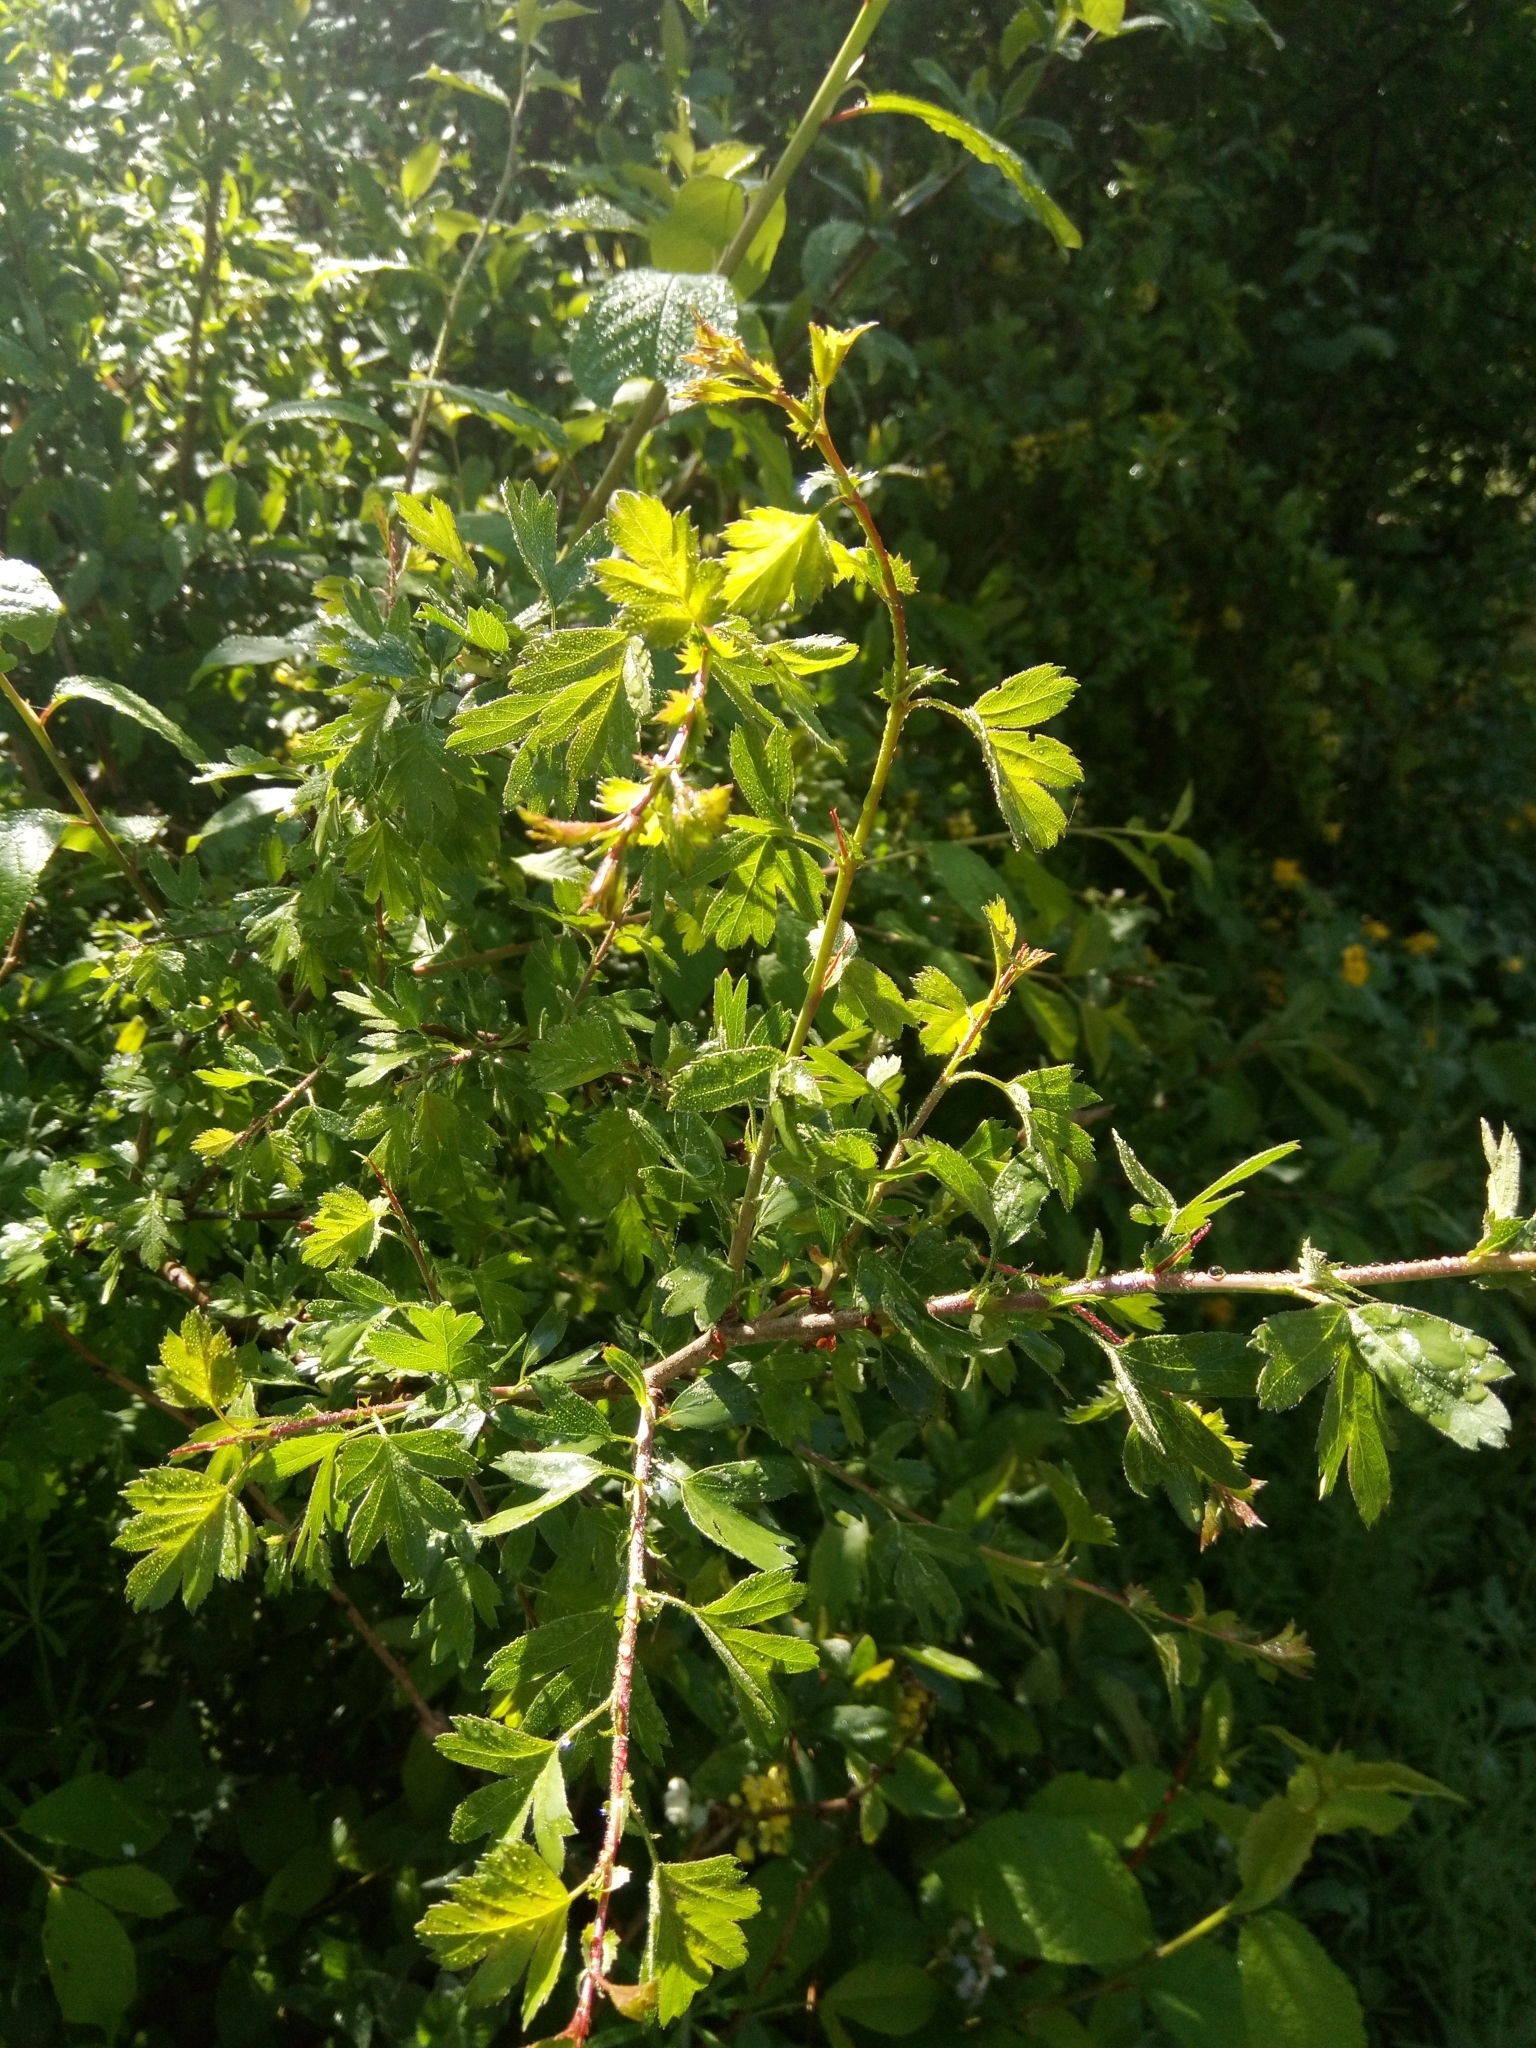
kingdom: Plantae
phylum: Tracheophyta
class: Magnoliopsida
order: Rosales
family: Rosaceae
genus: Crataegus
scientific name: Crataegus monogyna
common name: Hawthorn
